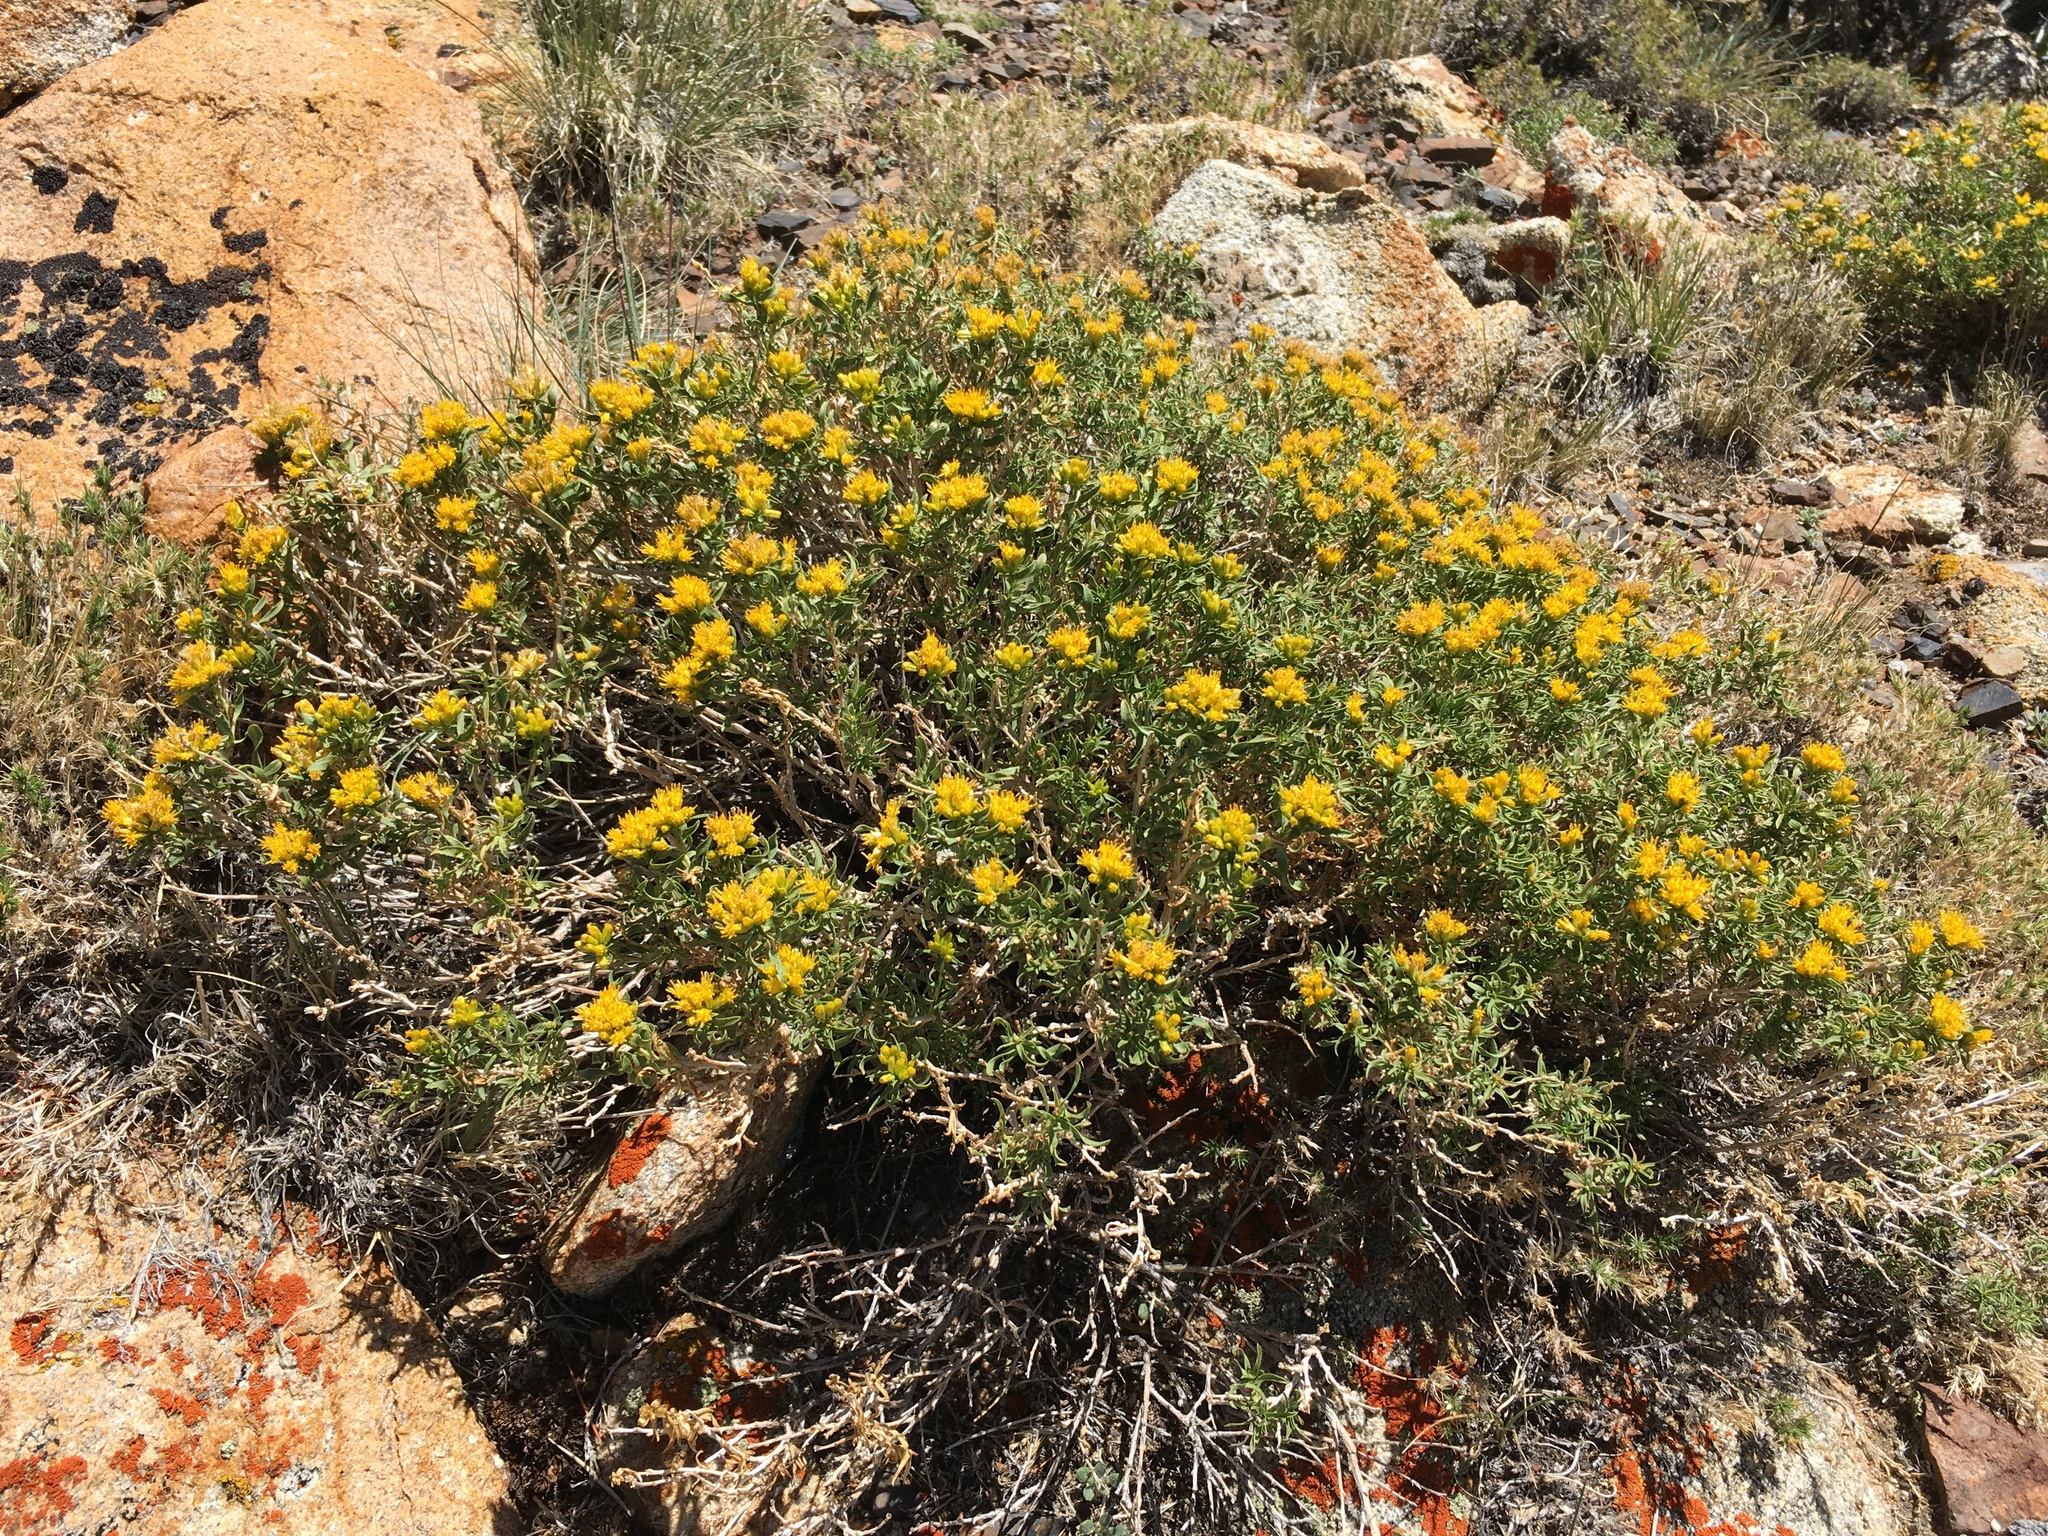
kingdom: Plantae
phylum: Tracheophyta
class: Magnoliopsida
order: Asterales
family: Asteraceae
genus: Chrysothamnus
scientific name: Chrysothamnus viscidiflorus
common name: Yellow rabbitbrush
